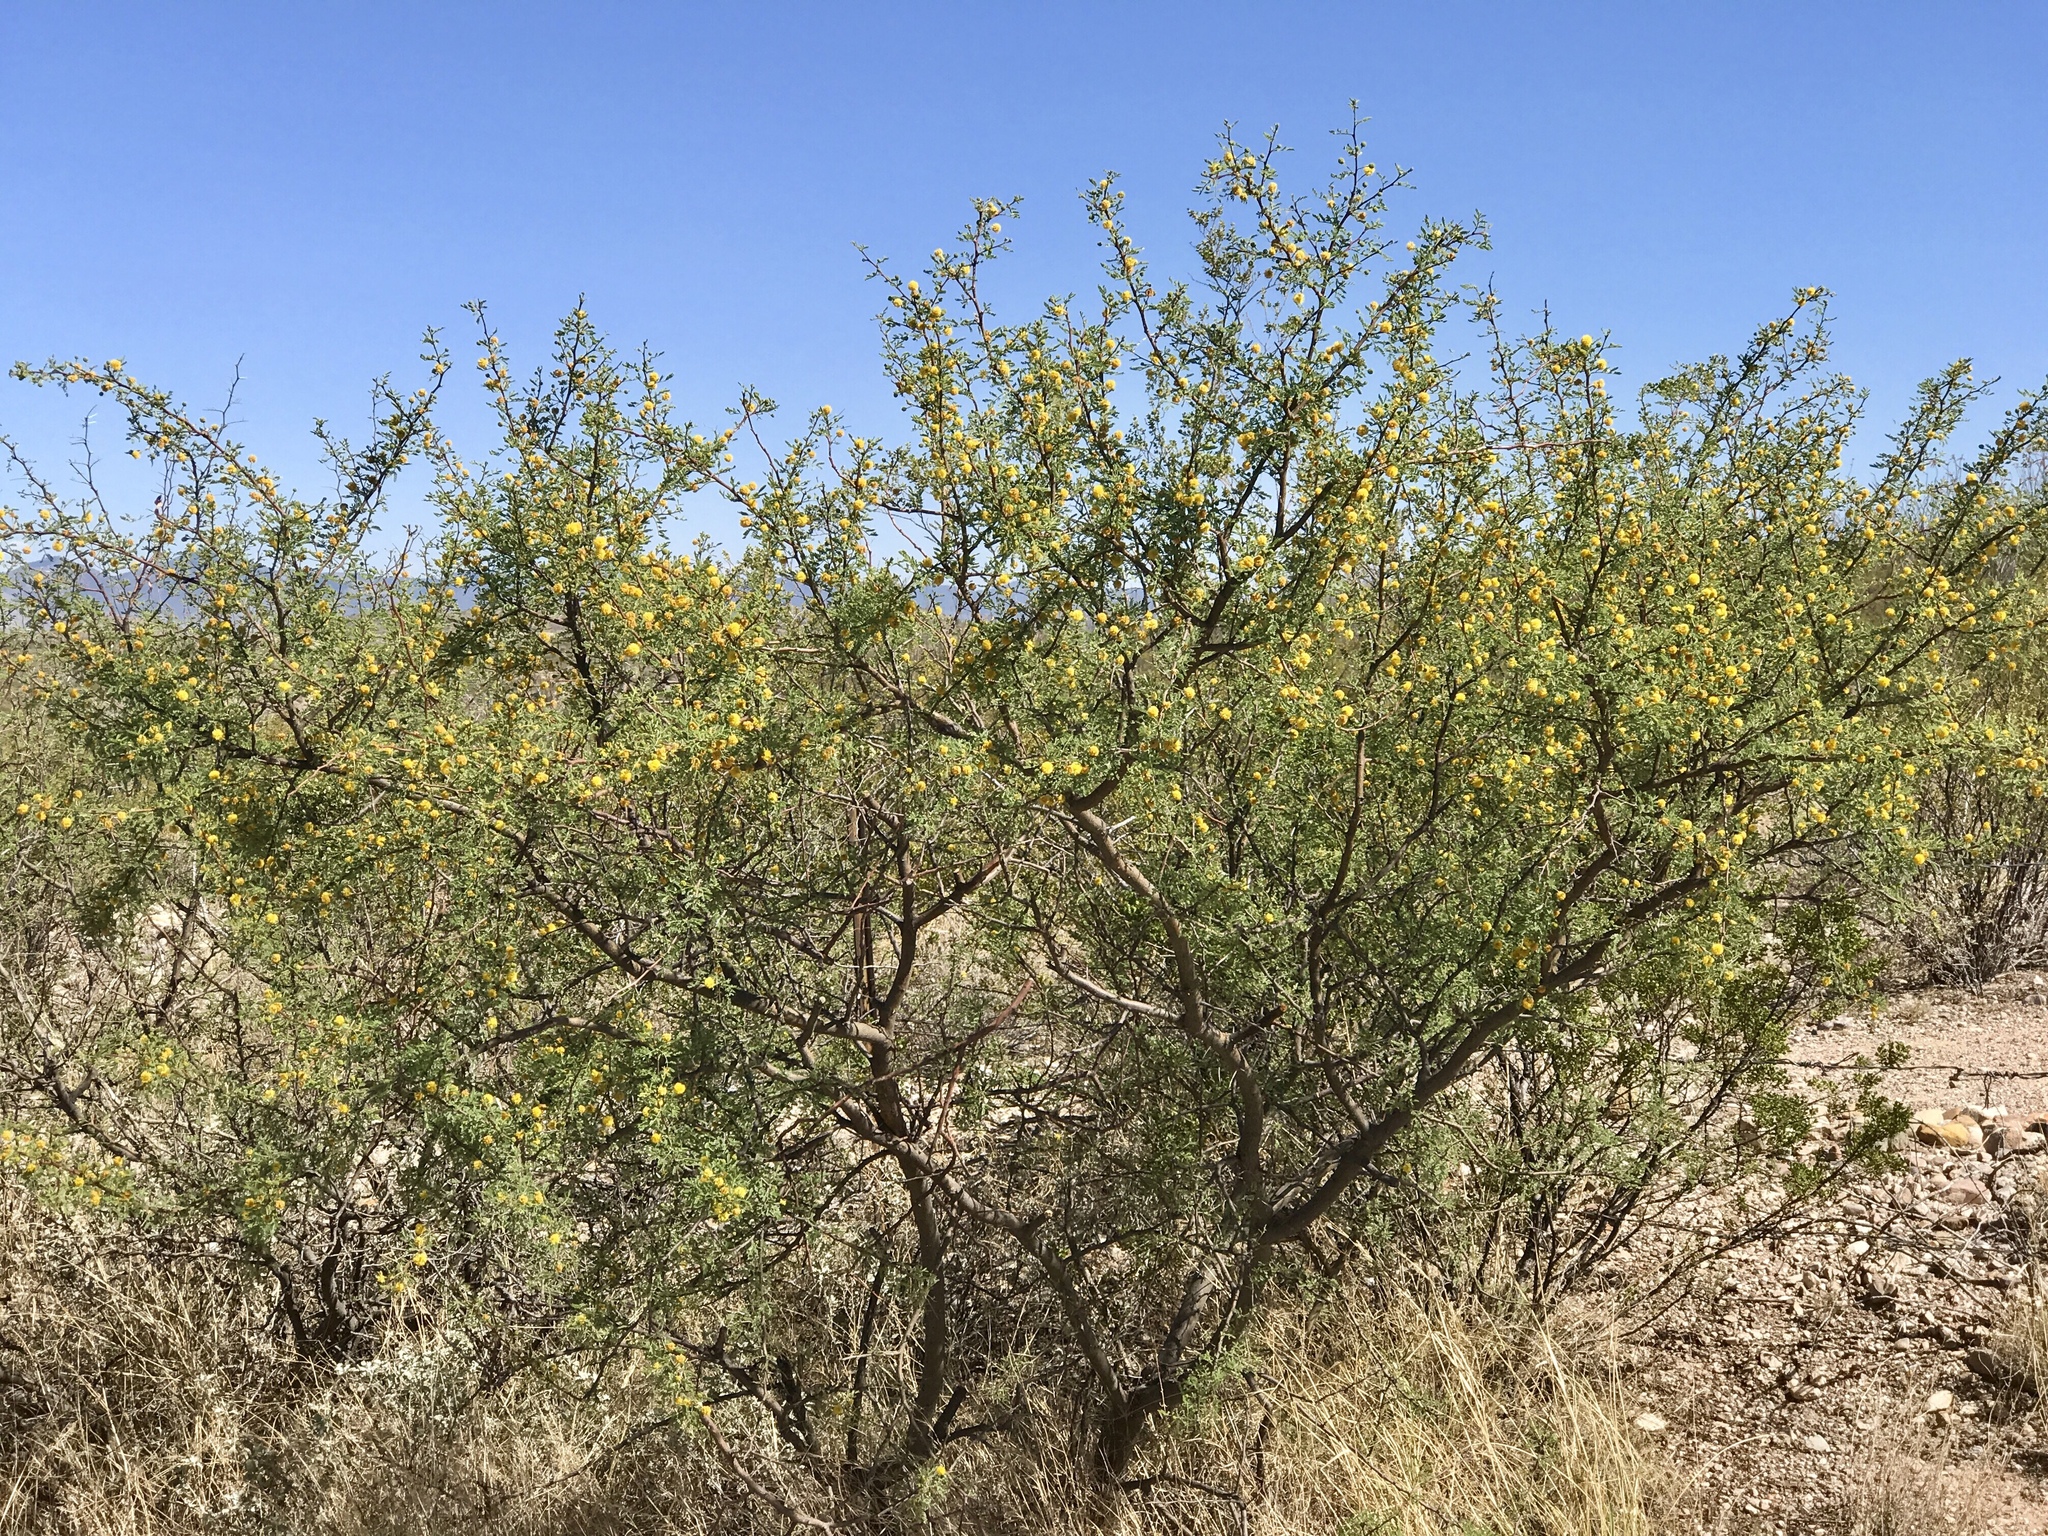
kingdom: Plantae
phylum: Tracheophyta
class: Magnoliopsida
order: Fabales
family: Fabaceae
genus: Vachellia
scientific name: Vachellia constricta
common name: Mescat acacia
